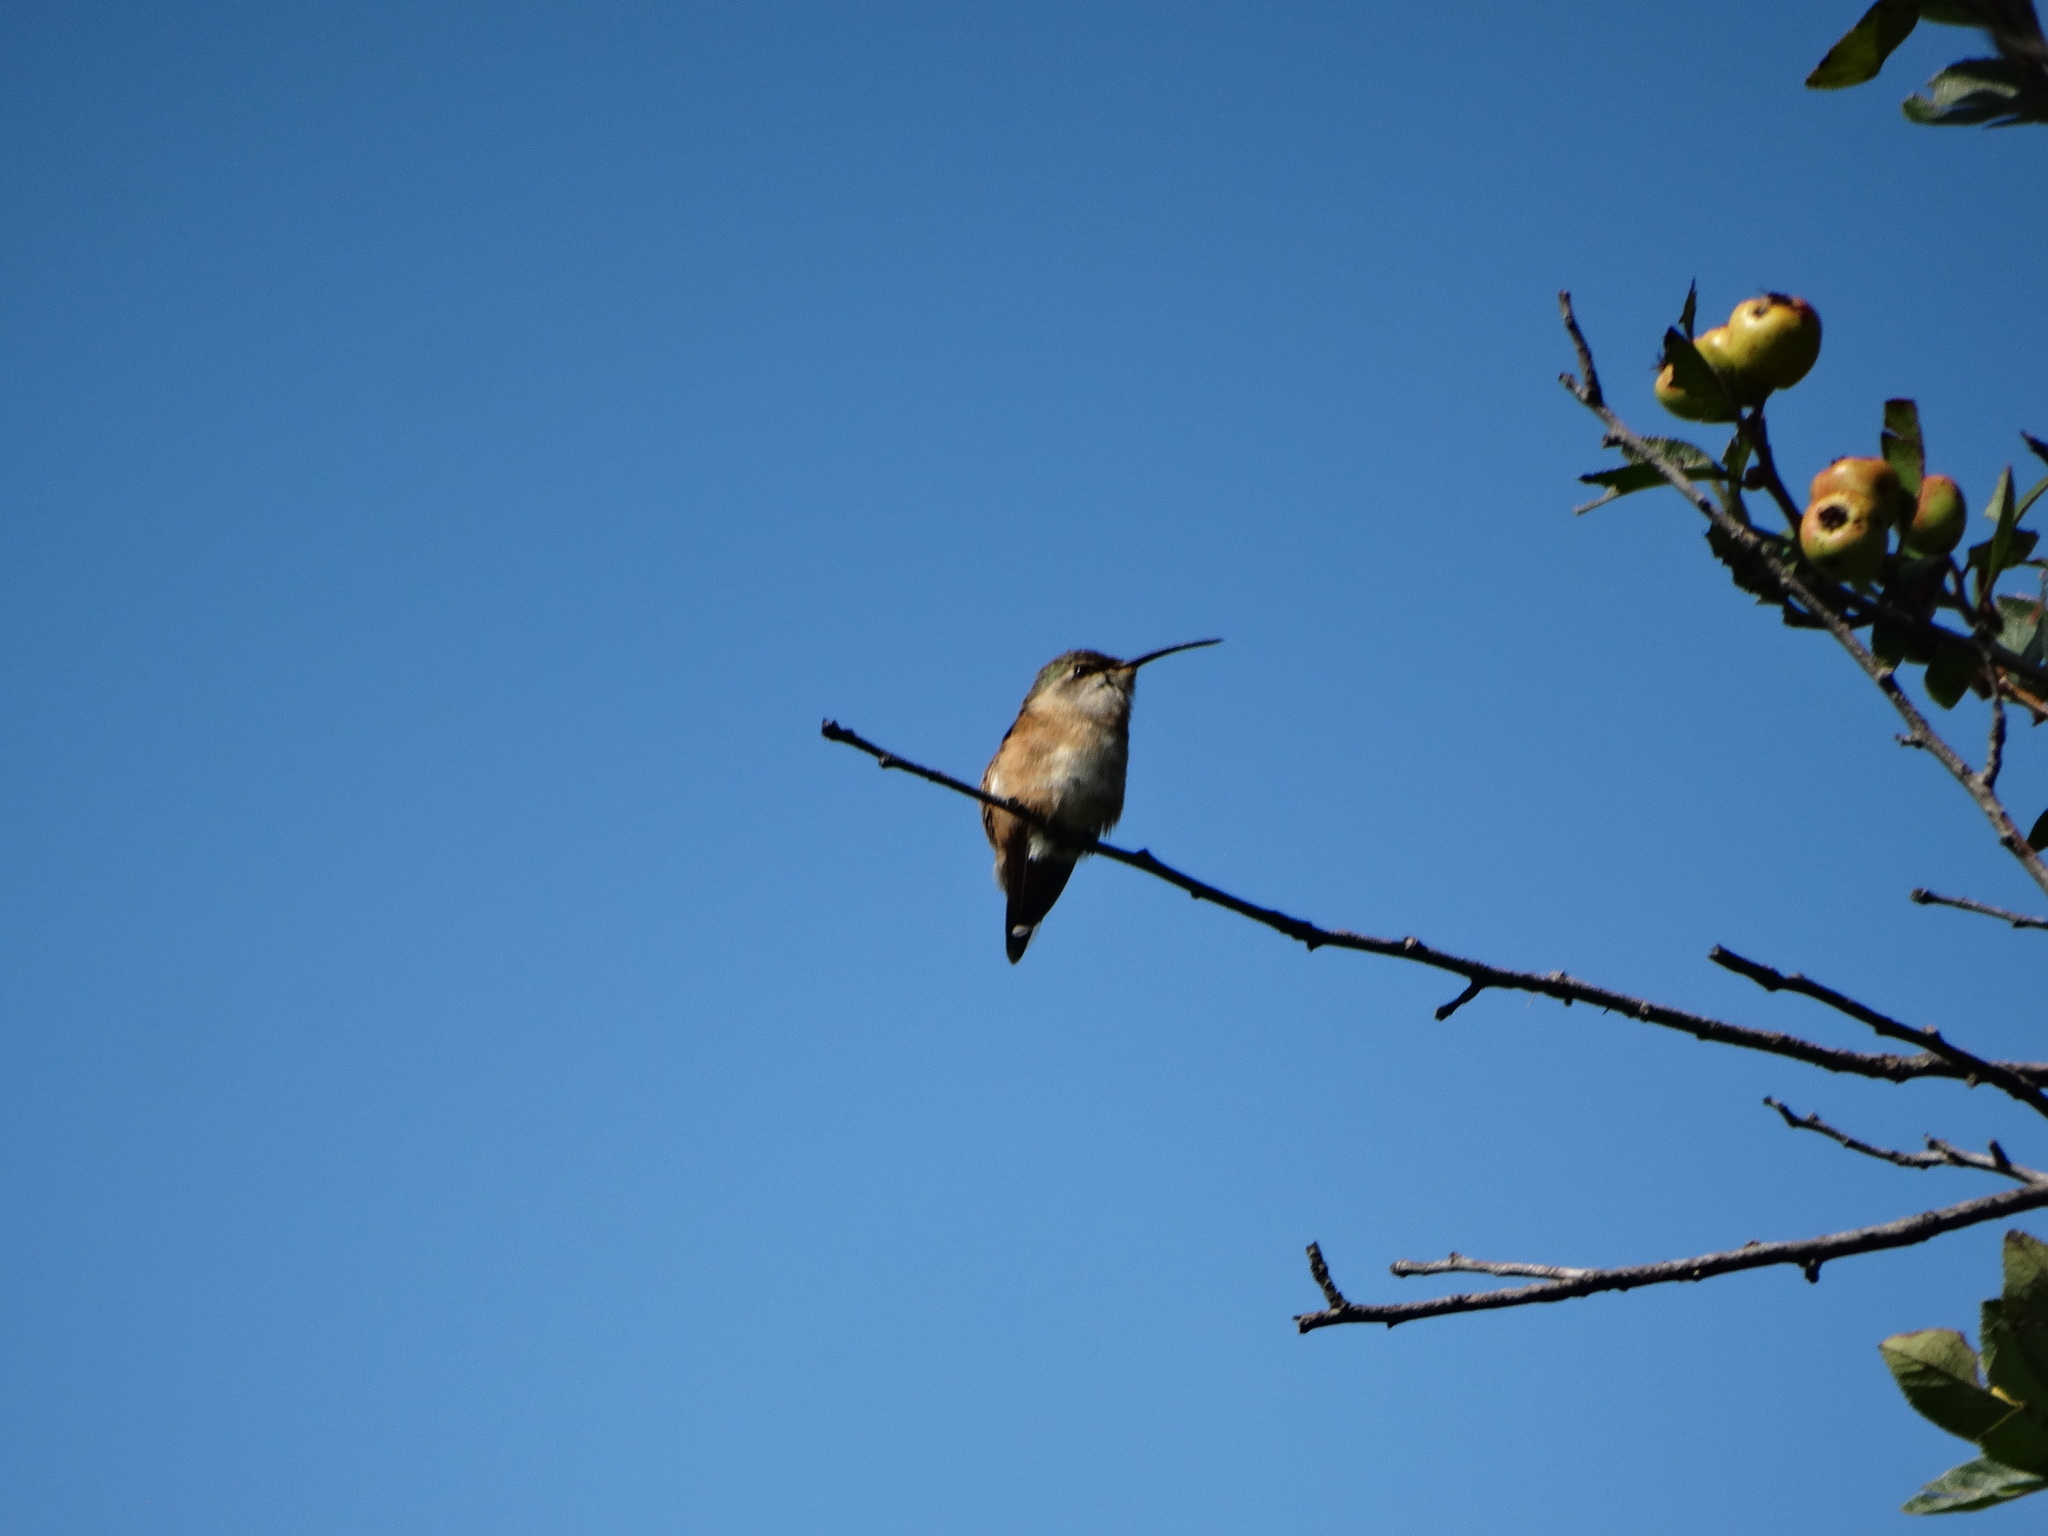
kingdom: Animalia
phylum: Chordata
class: Aves
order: Apodiformes
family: Trochilidae
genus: Calothorax
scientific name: Calothorax lucifer
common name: Lucifer sheartail
